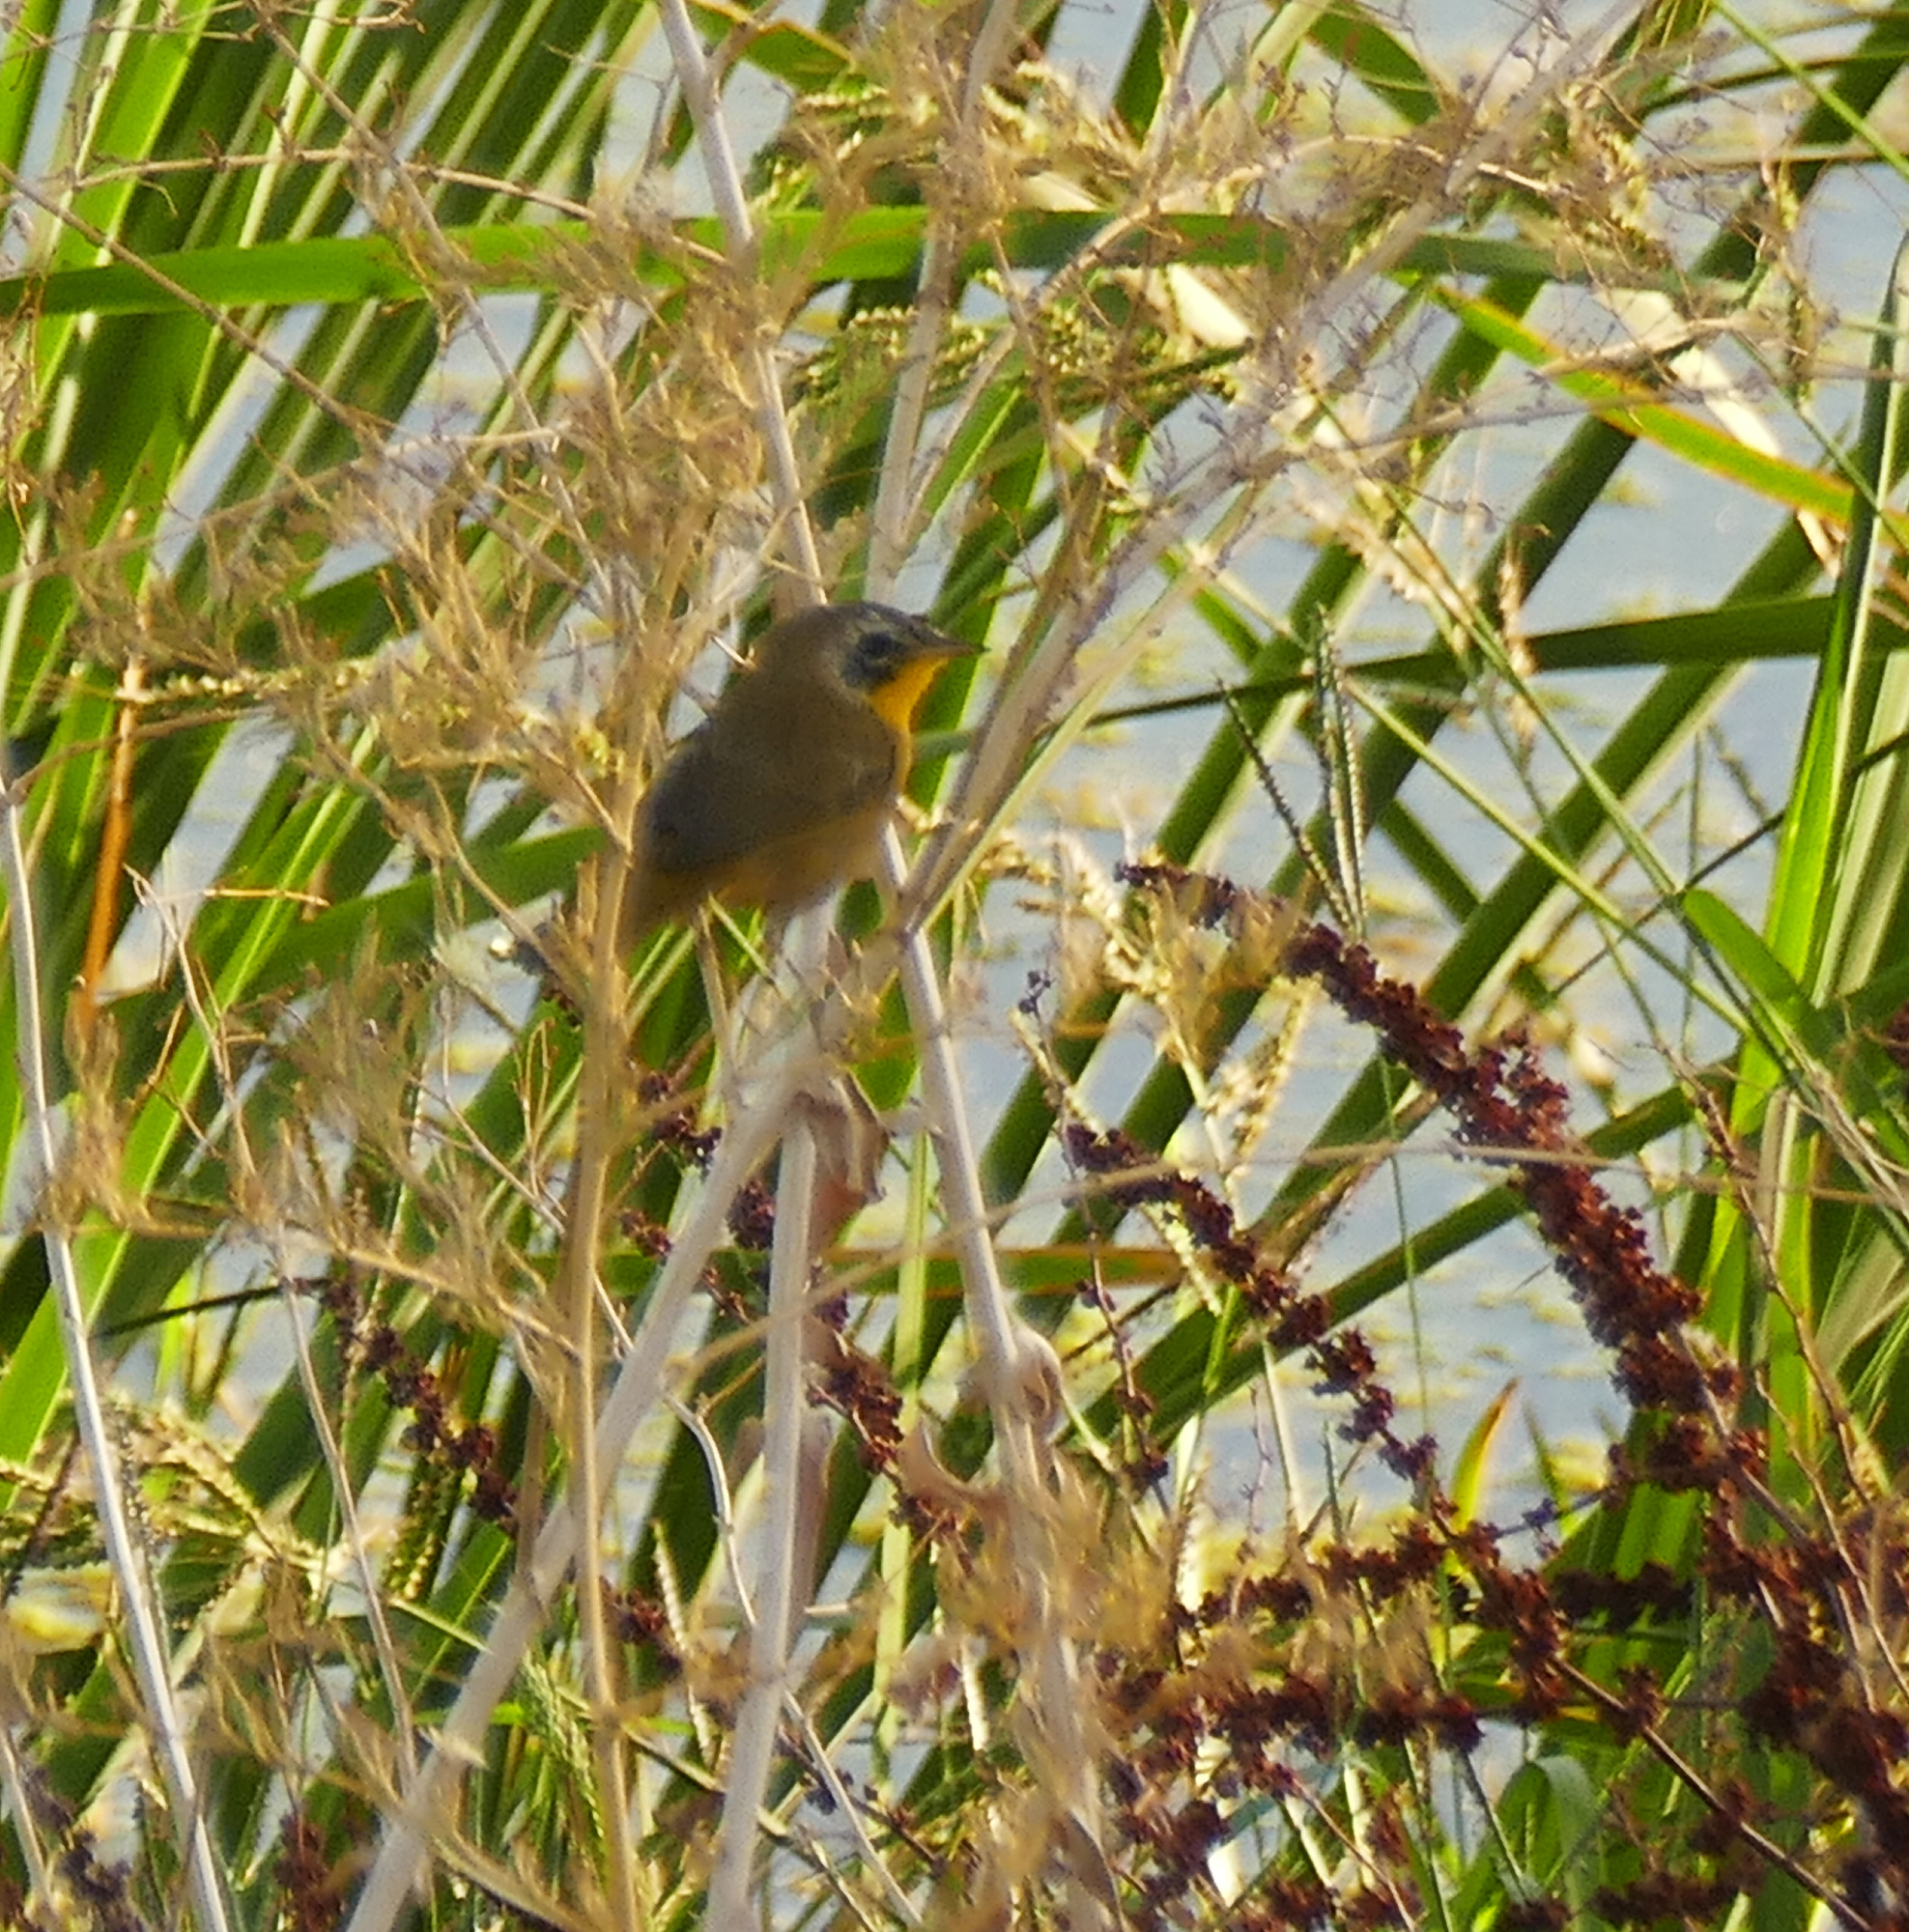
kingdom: Animalia
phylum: Chordata
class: Aves
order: Passeriformes
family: Parulidae
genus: Geothlypis
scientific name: Geothlypis trichas
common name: Common yellowthroat
